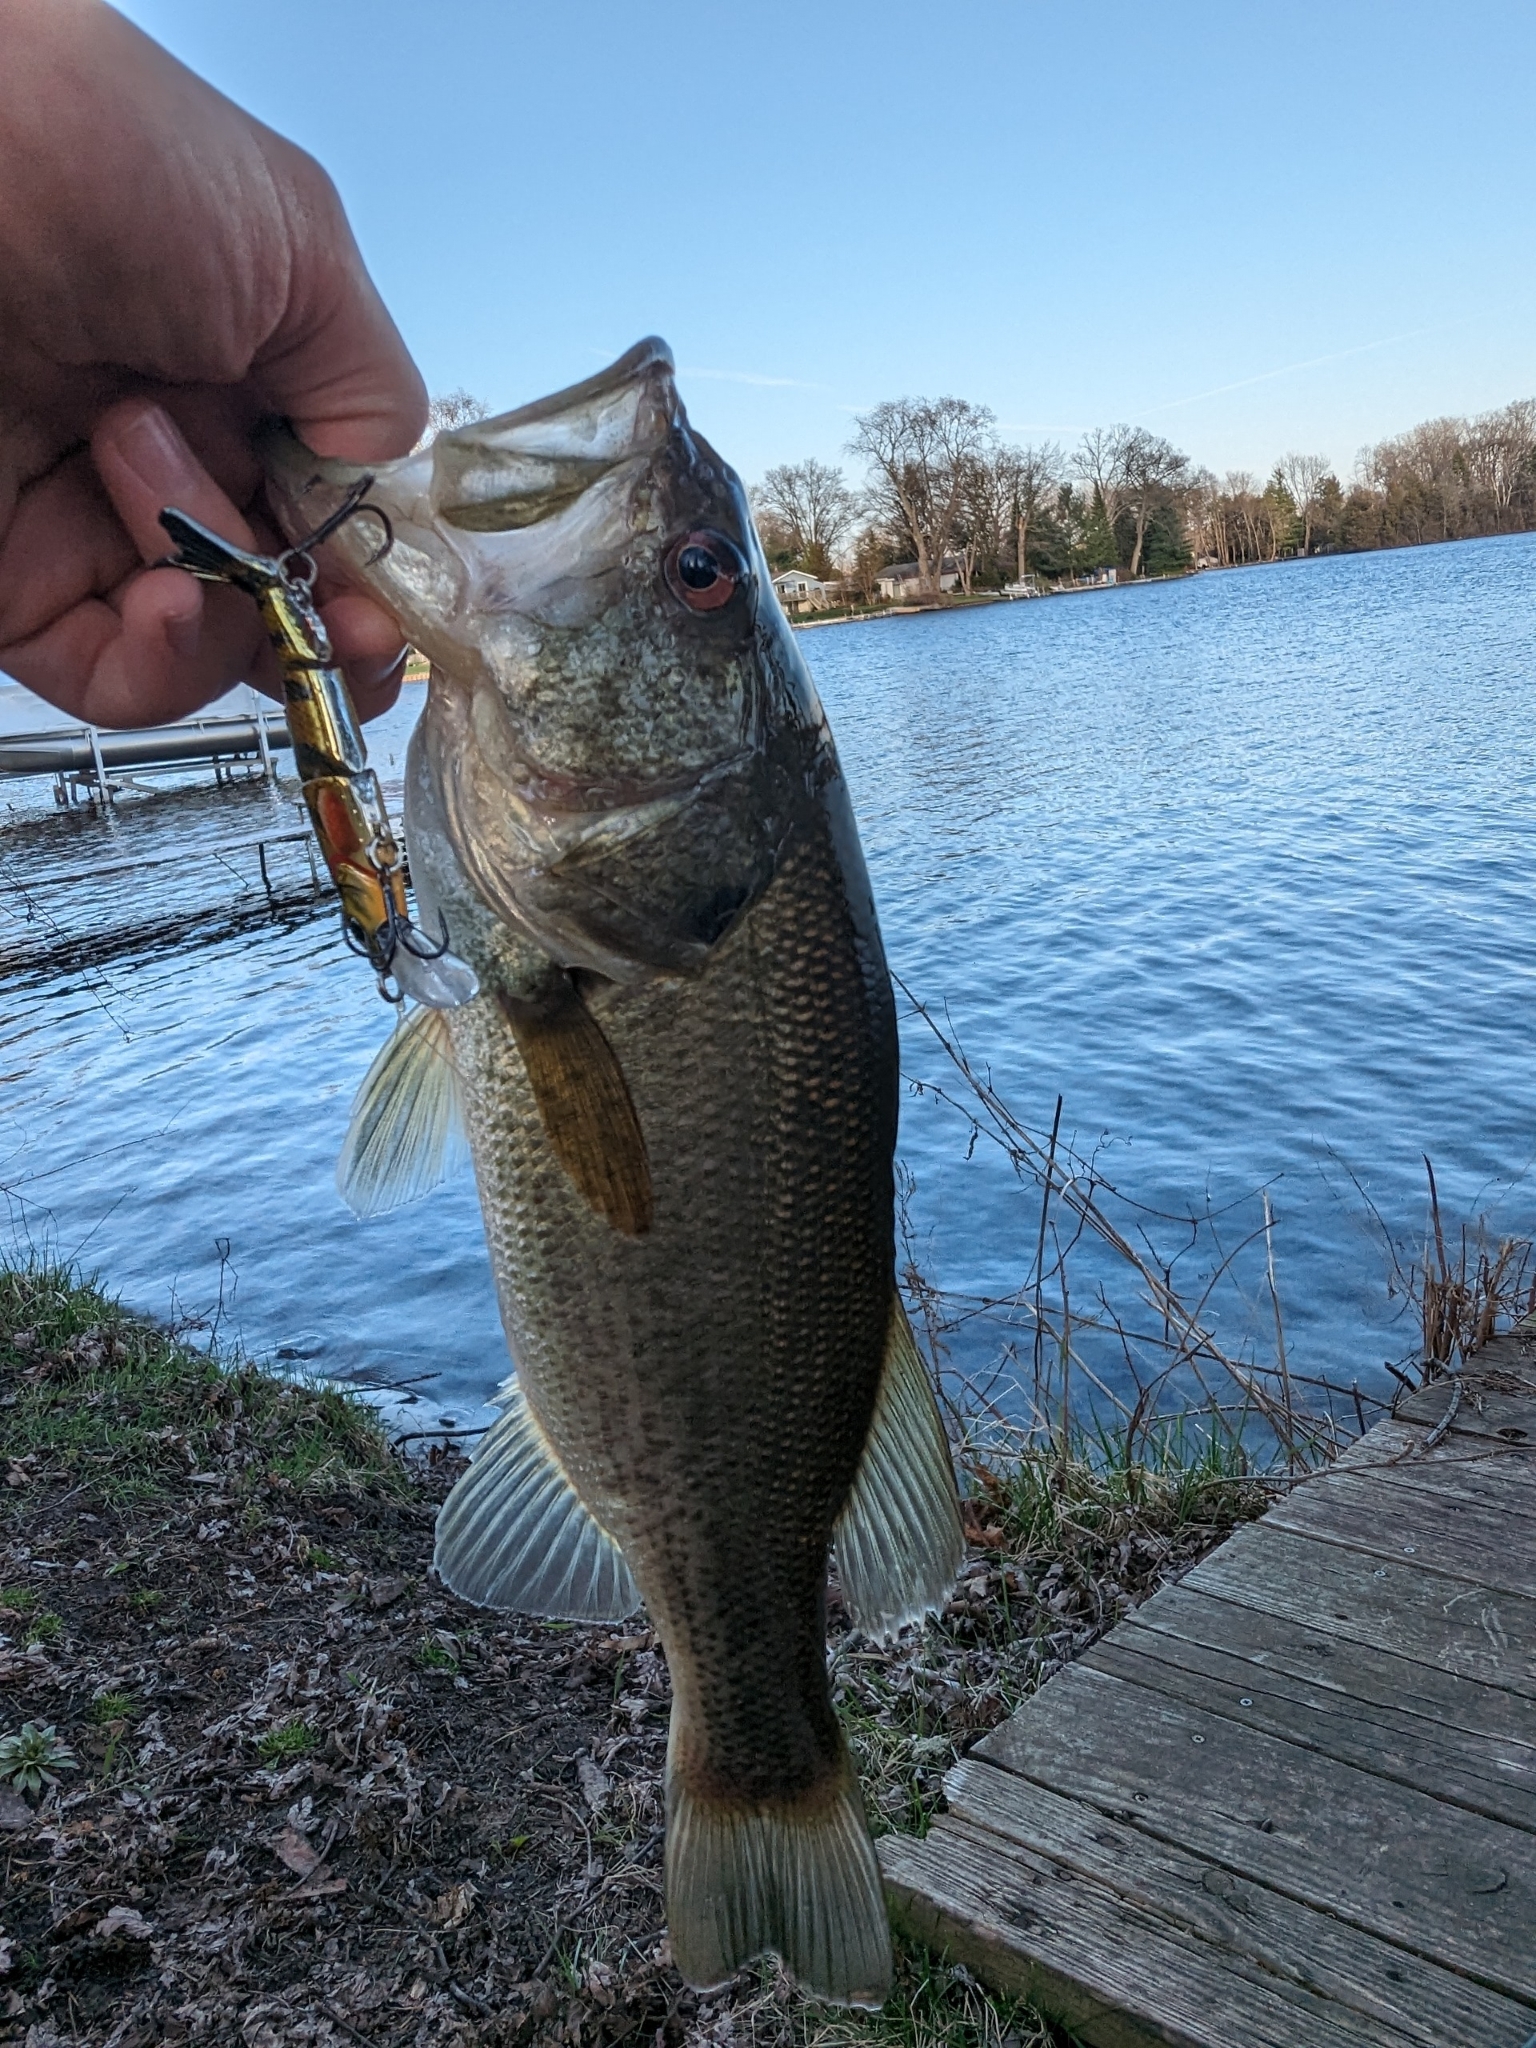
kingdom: Animalia
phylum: Chordata
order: Perciformes
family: Centrarchidae
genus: Micropterus
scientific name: Micropterus
